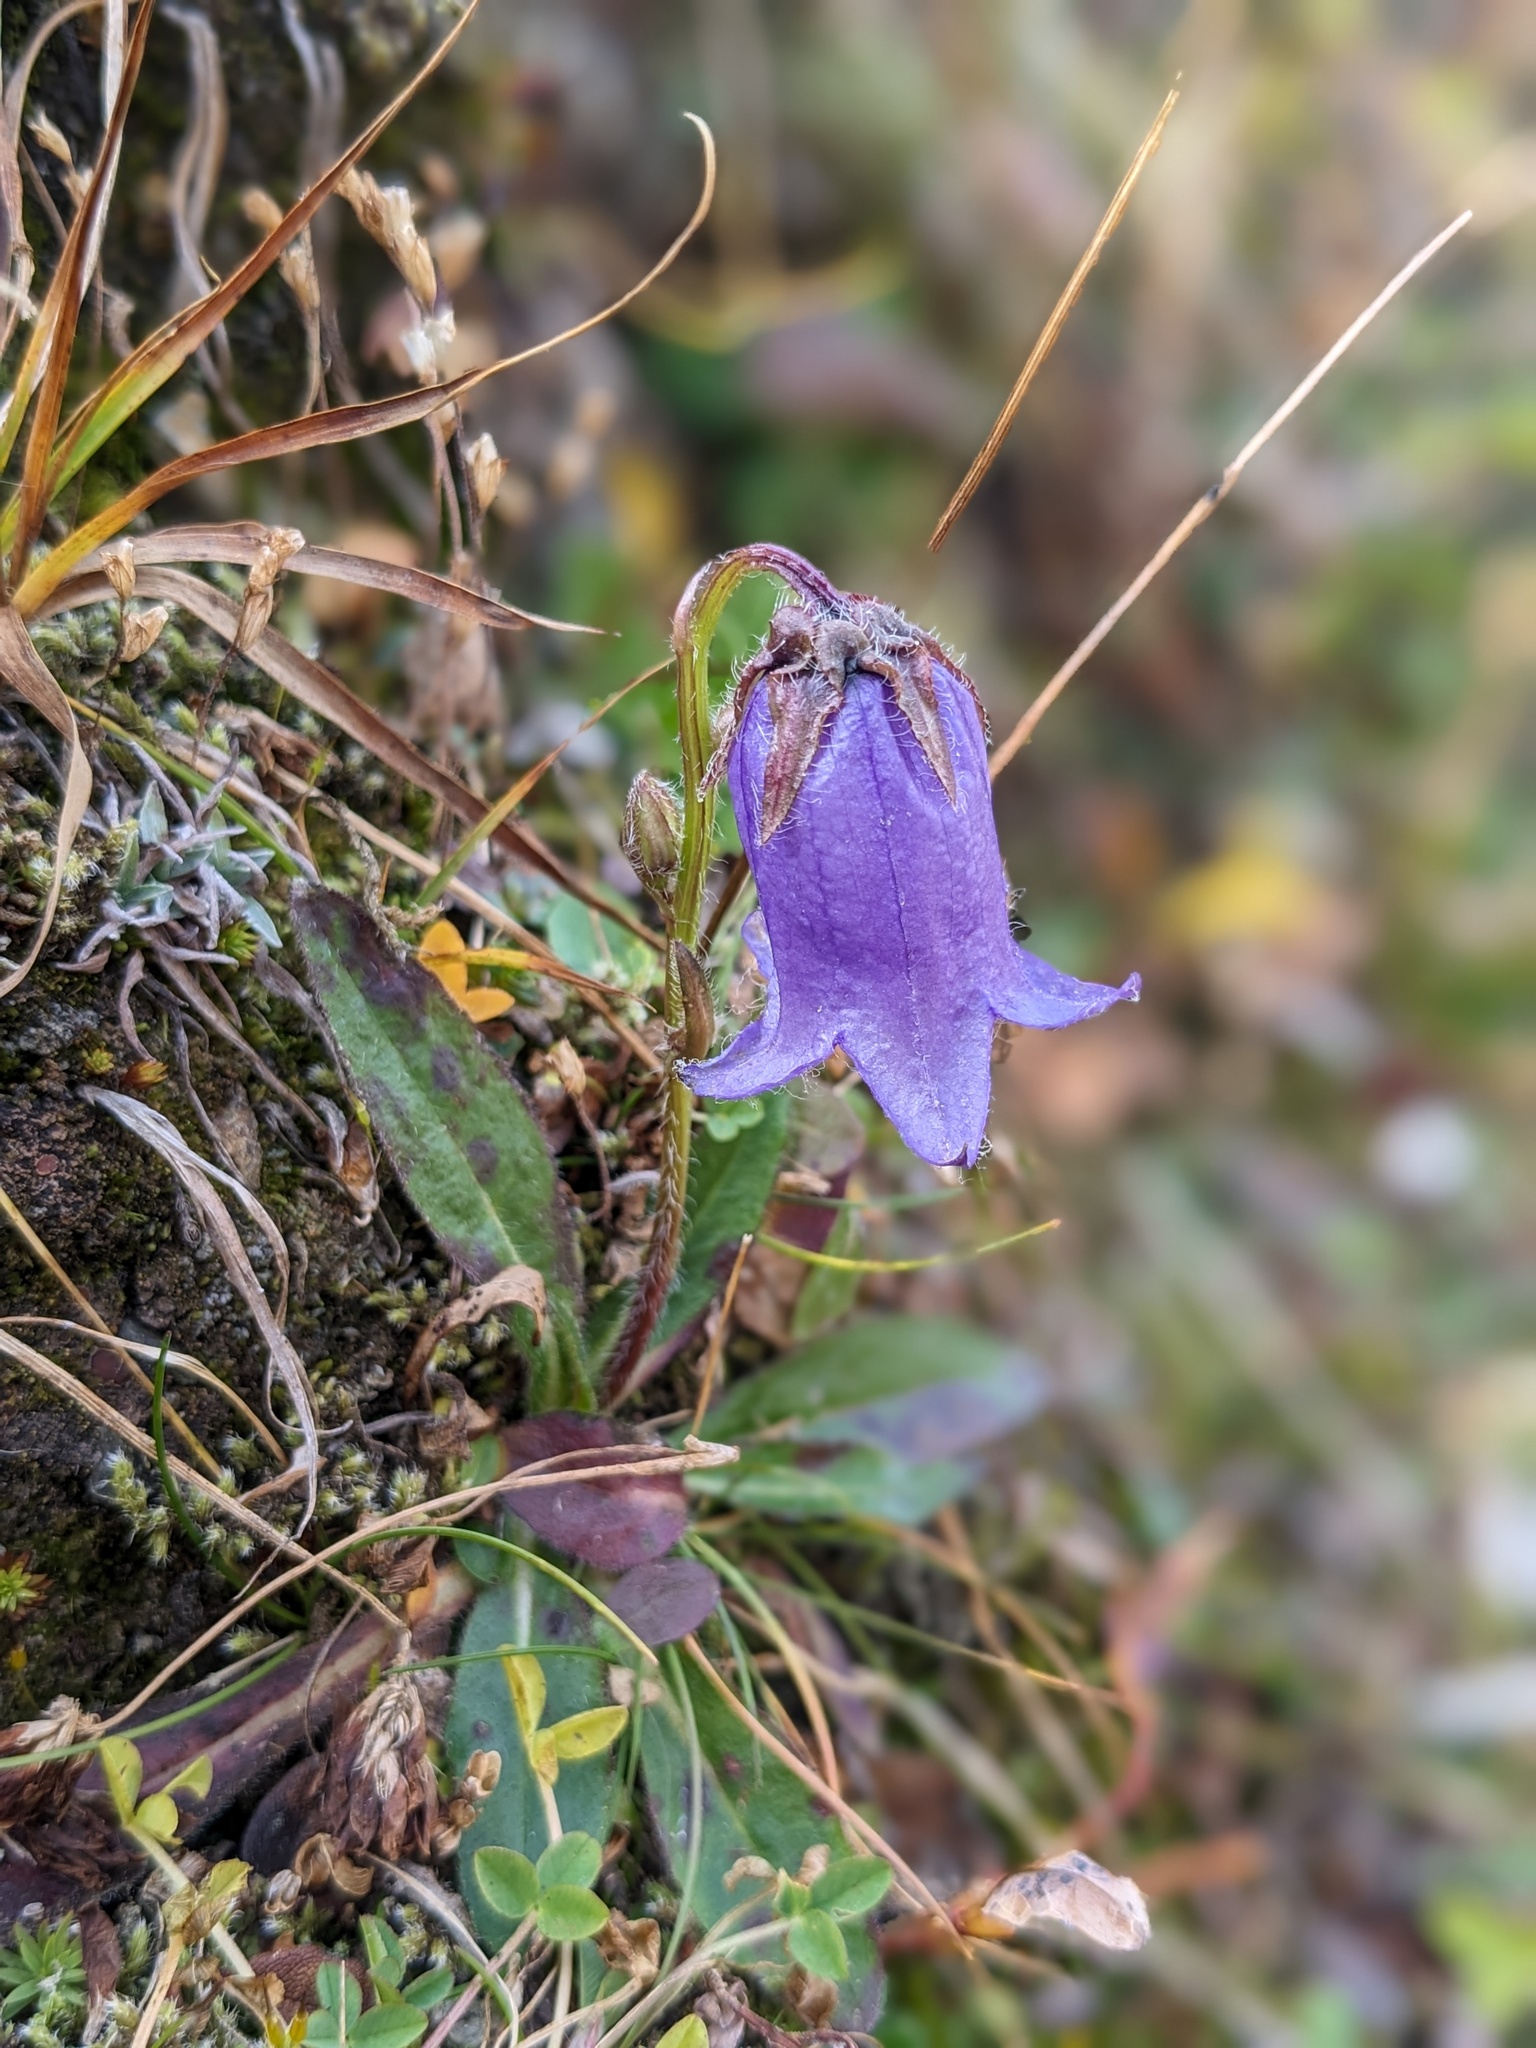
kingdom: Plantae
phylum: Tracheophyta
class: Magnoliopsida
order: Asterales
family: Campanulaceae
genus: Campanula
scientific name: Campanula barbata
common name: Bearded bellflower
